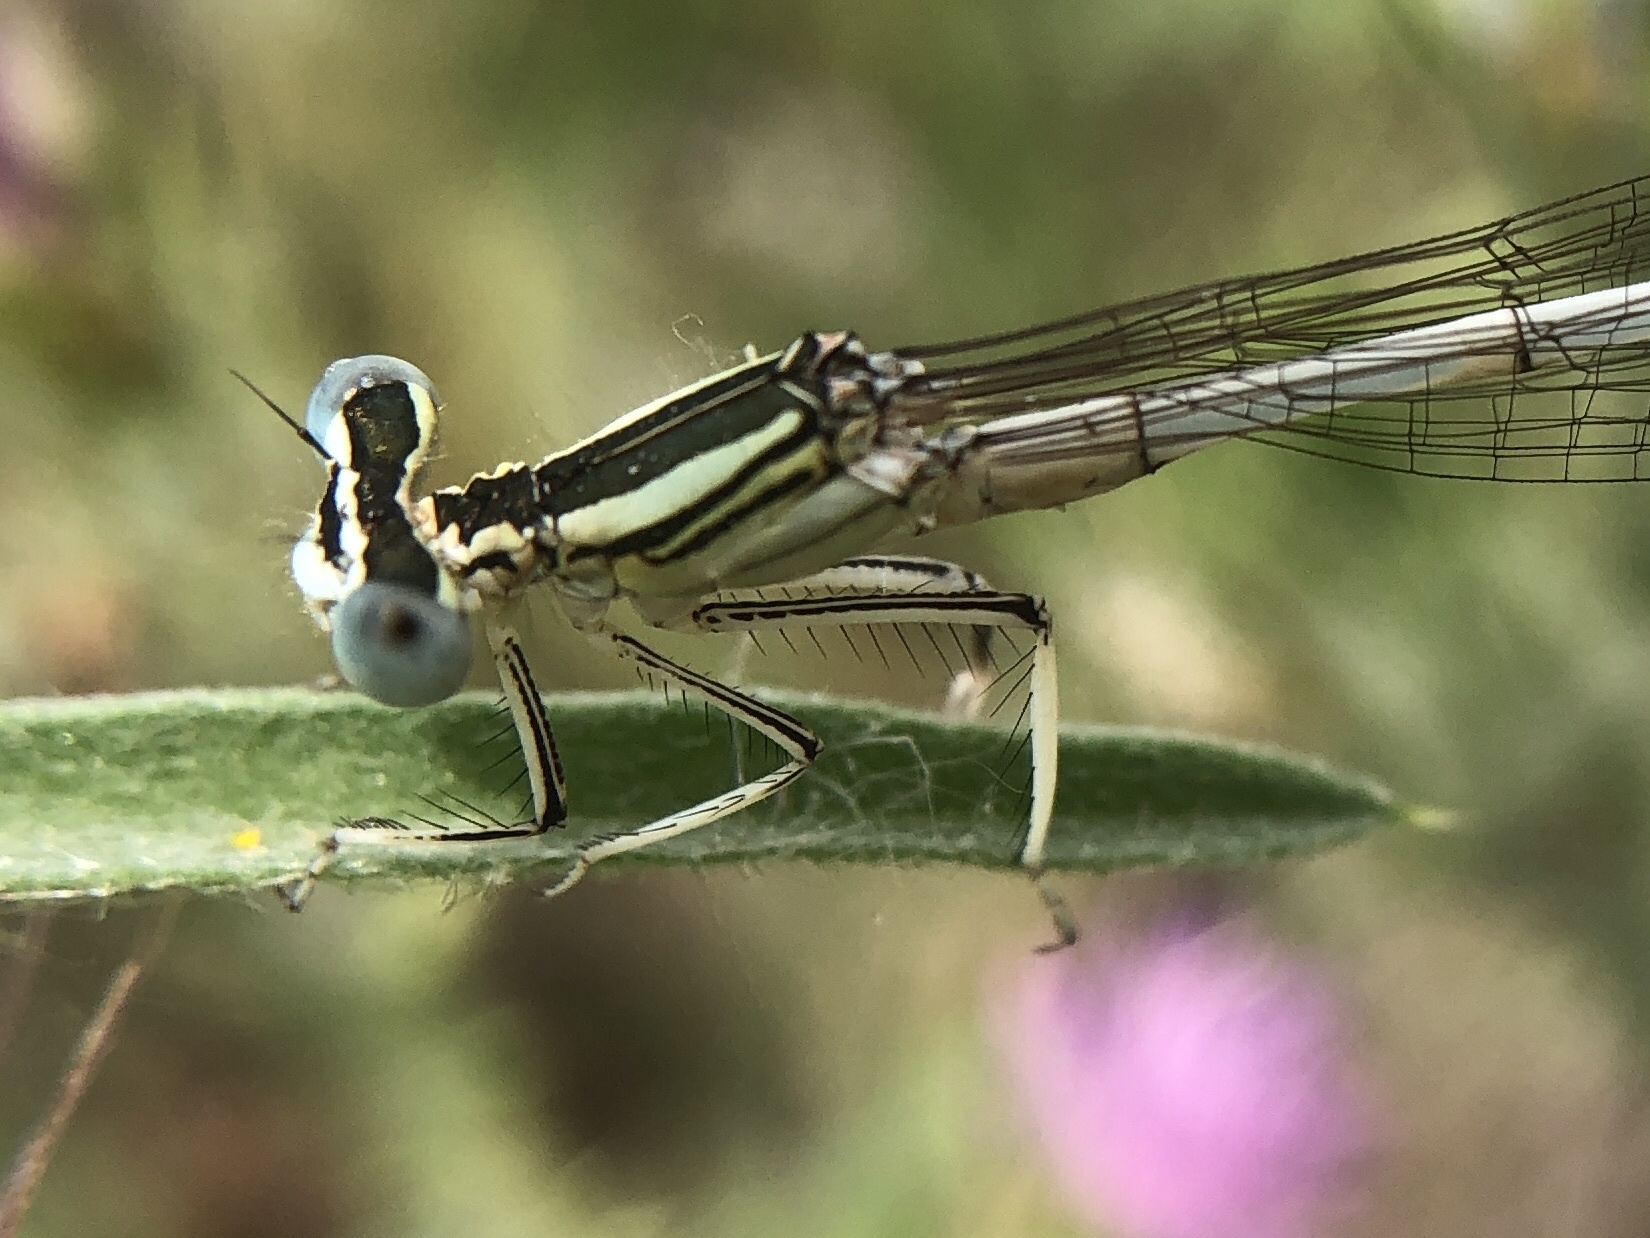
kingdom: Animalia
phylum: Arthropoda
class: Insecta
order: Odonata
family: Platycnemididae
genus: Platycnemis
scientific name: Platycnemis latipes
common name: White featherleg
